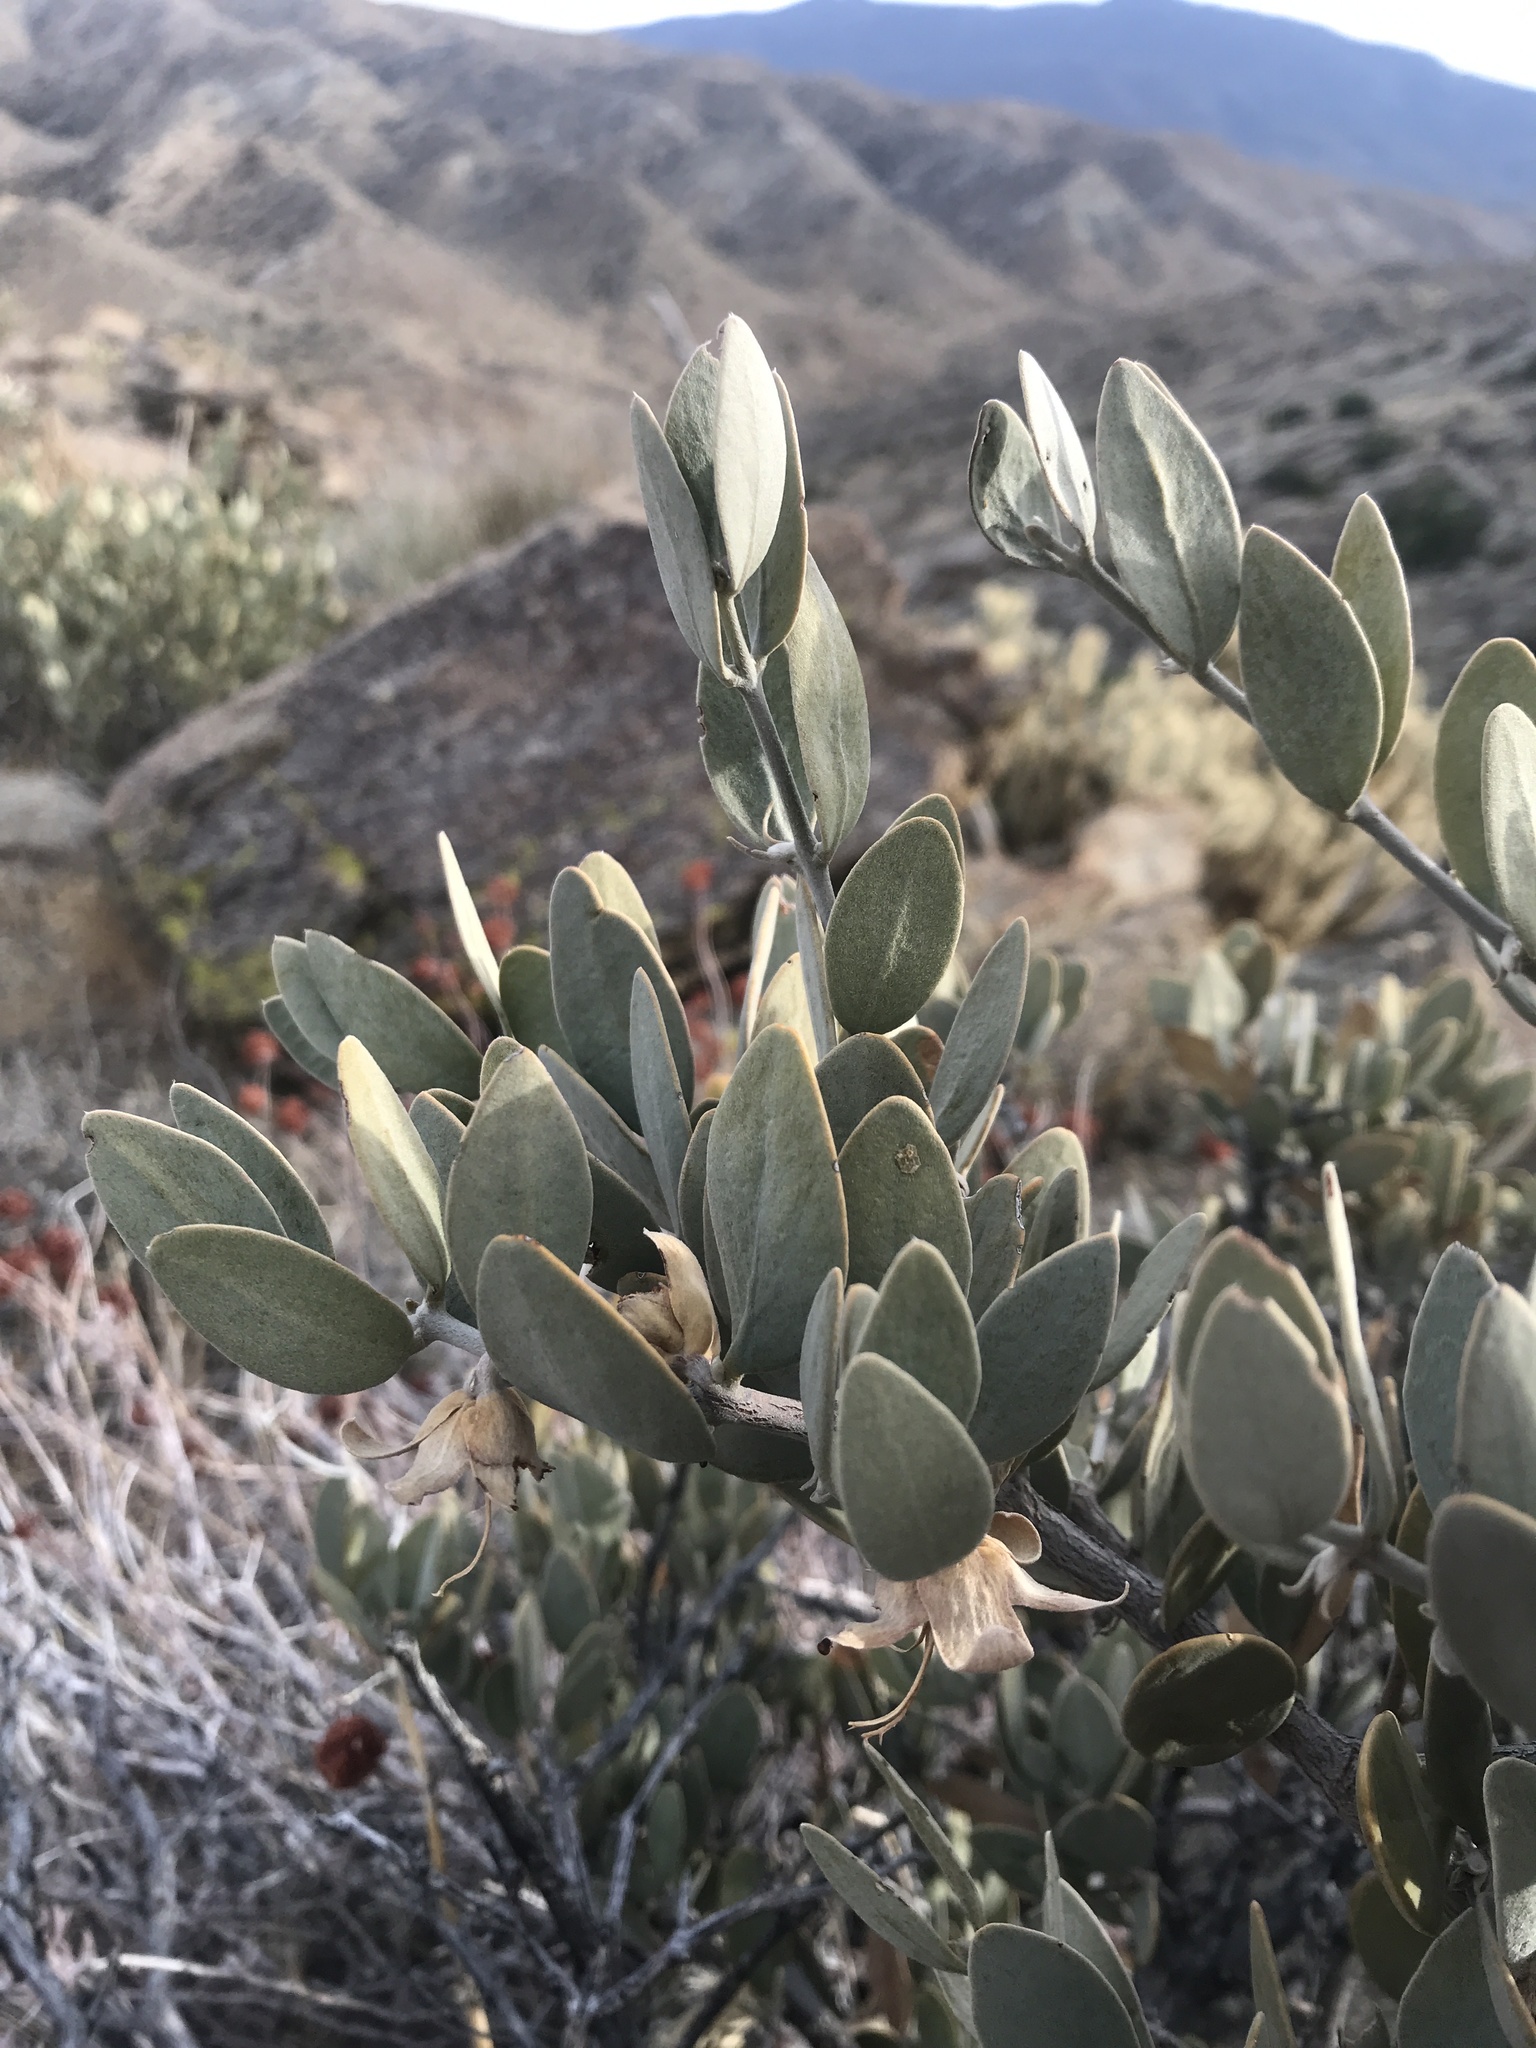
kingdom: Plantae
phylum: Tracheophyta
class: Magnoliopsida
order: Caryophyllales
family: Simmondsiaceae
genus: Simmondsia
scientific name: Simmondsia chinensis
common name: Jojoba
